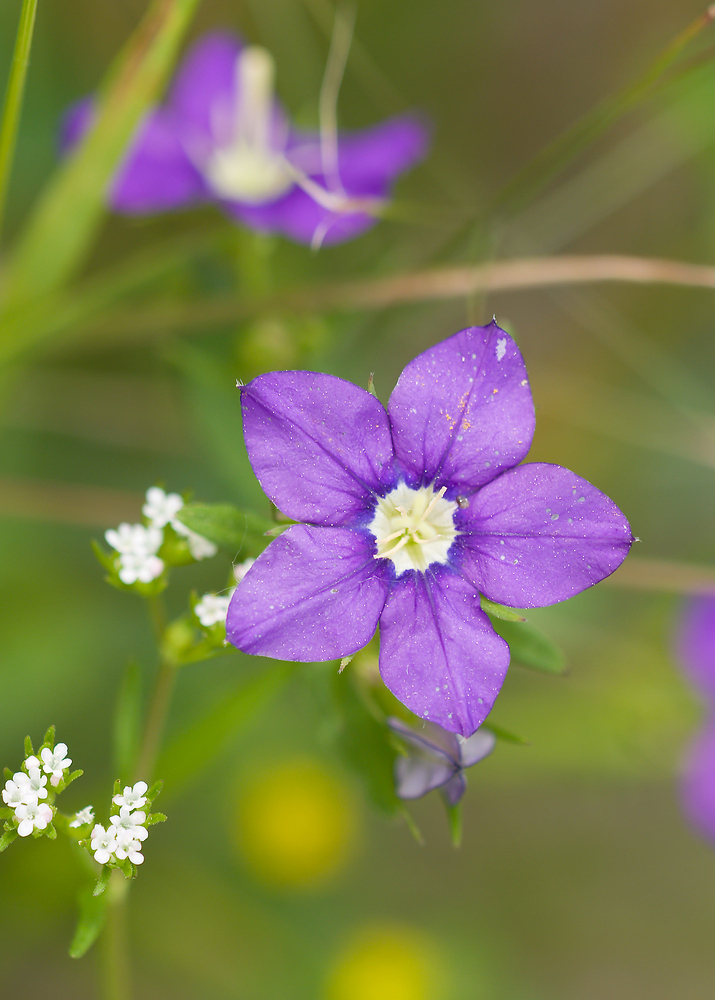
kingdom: Plantae
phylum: Tracheophyta
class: Magnoliopsida
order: Asterales
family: Campanulaceae
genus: Legousia
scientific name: Legousia speculum-veneris
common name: Large venus's-looking-glass
